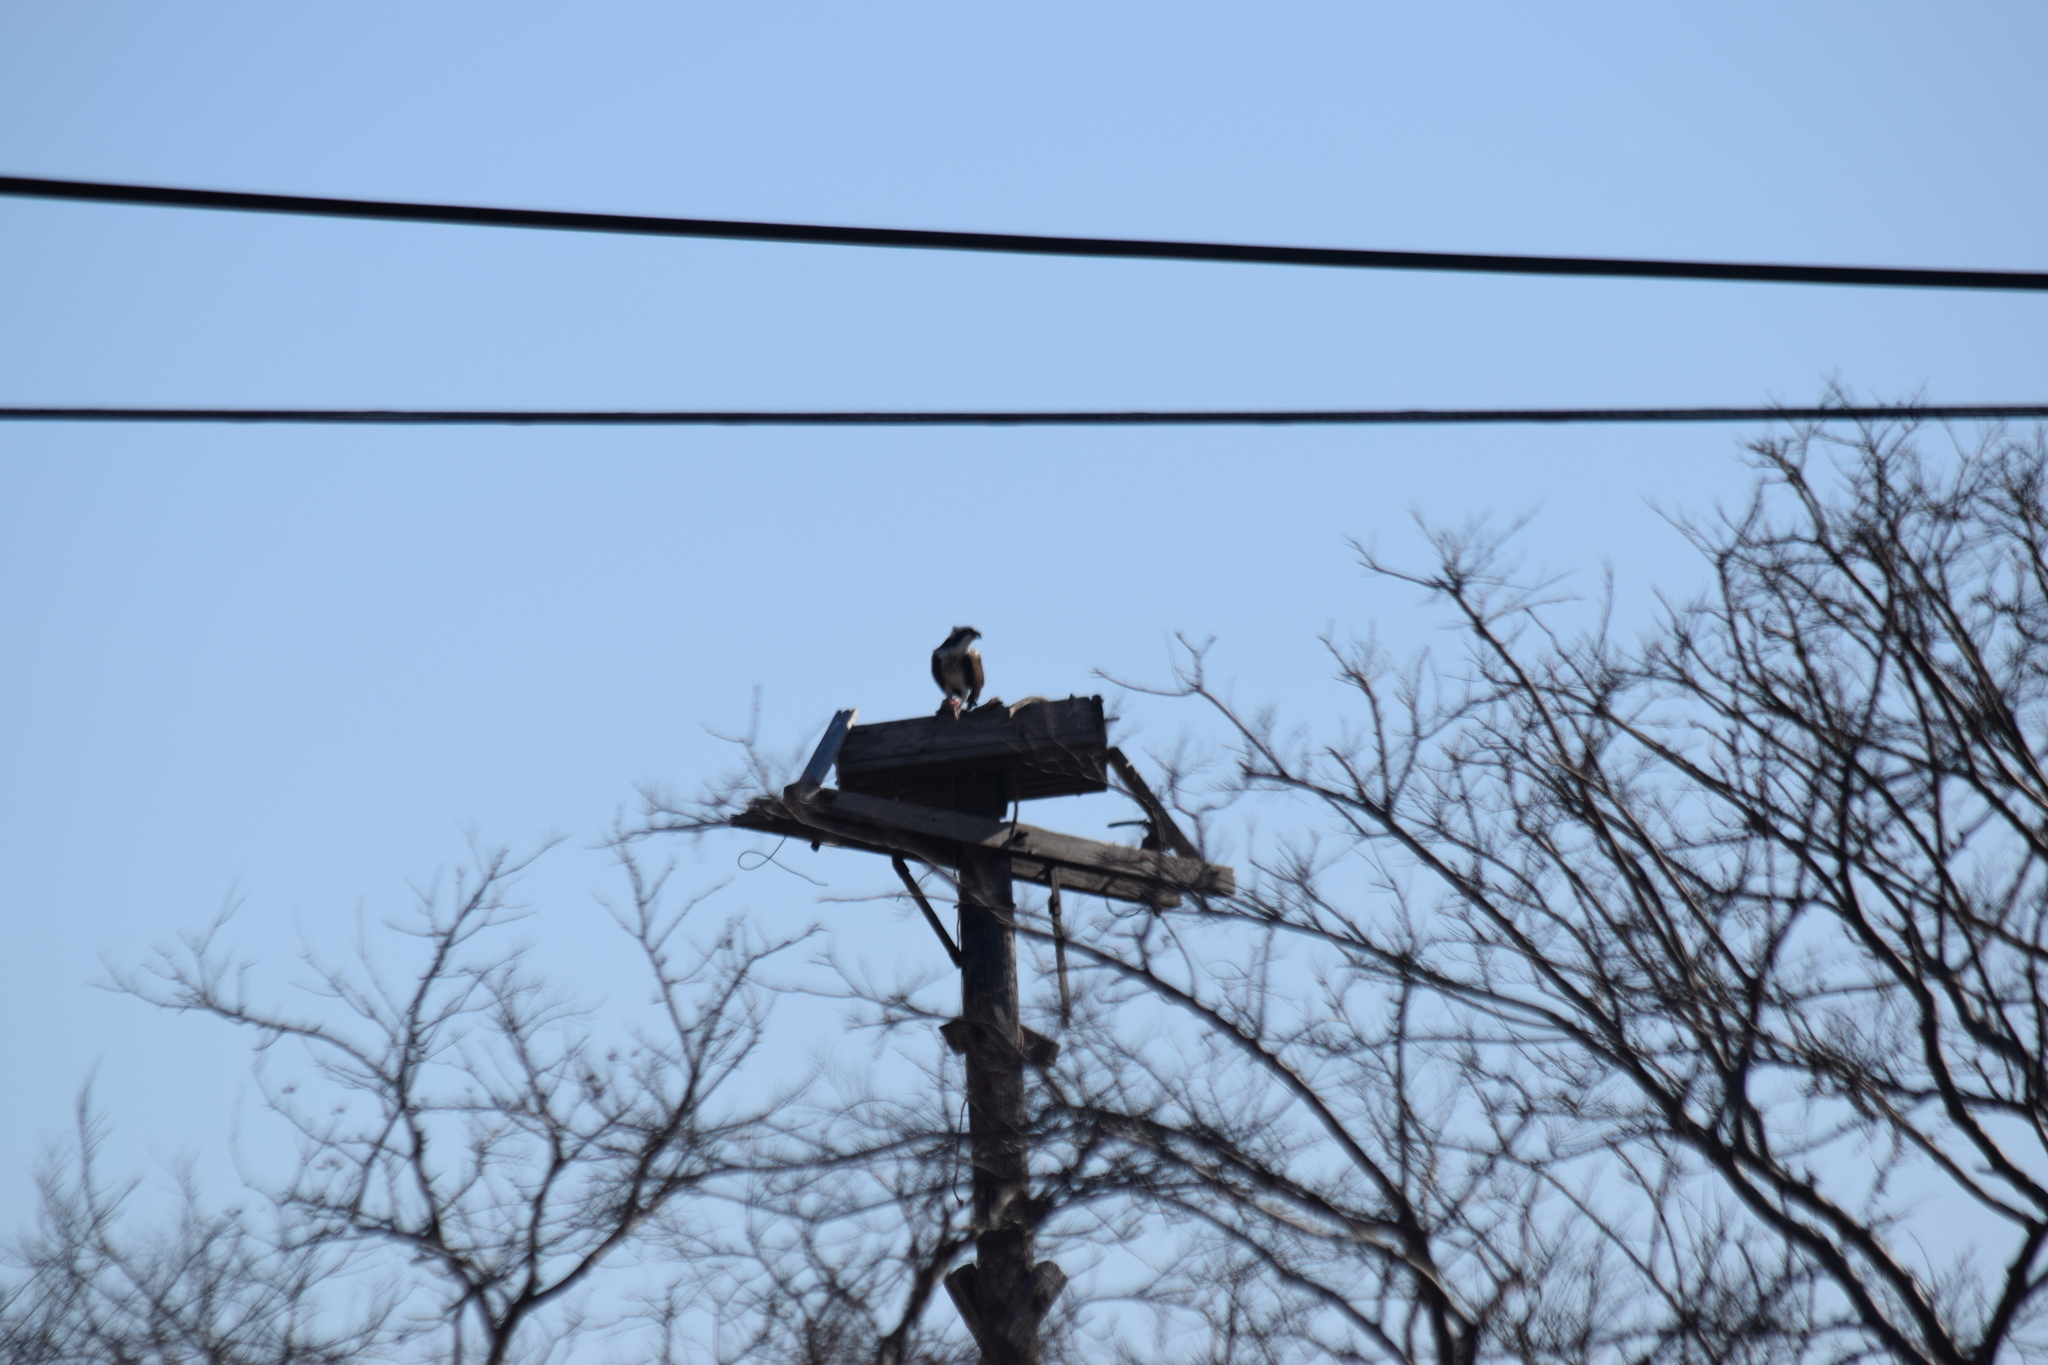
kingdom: Animalia
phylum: Chordata
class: Aves
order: Accipitriformes
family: Pandionidae
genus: Pandion
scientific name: Pandion haliaetus
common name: Osprey
